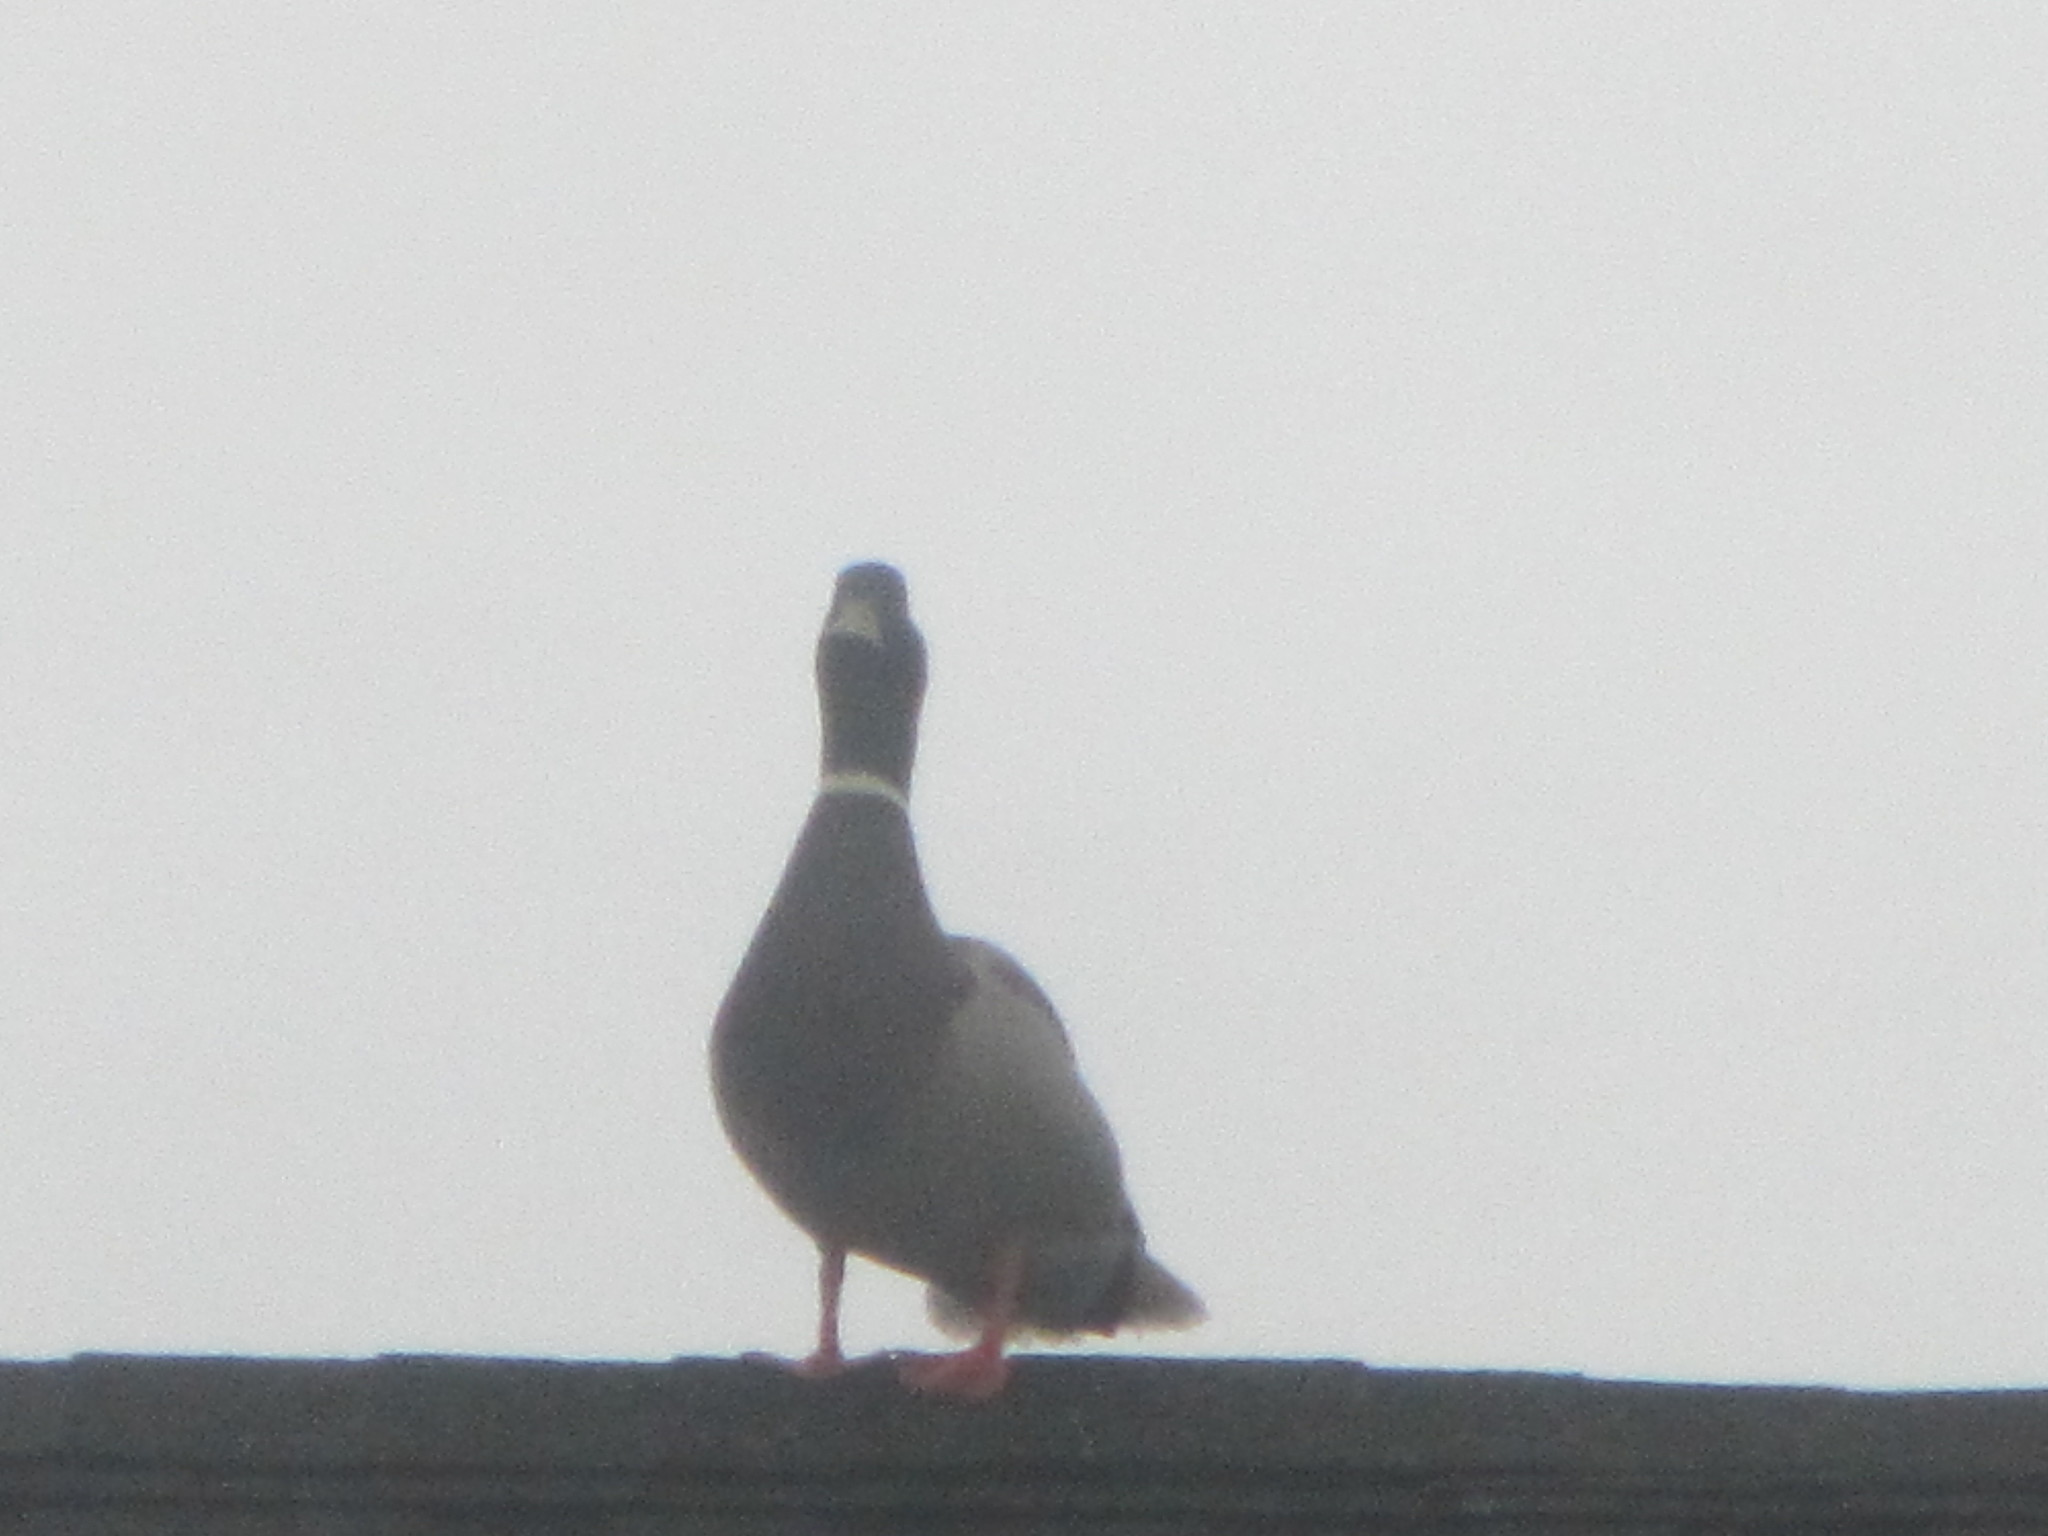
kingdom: Animalia
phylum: Chordata
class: Aves
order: Anseriformes
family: Anatidae
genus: Anas
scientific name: Anas platyrhynchos
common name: Mallard
